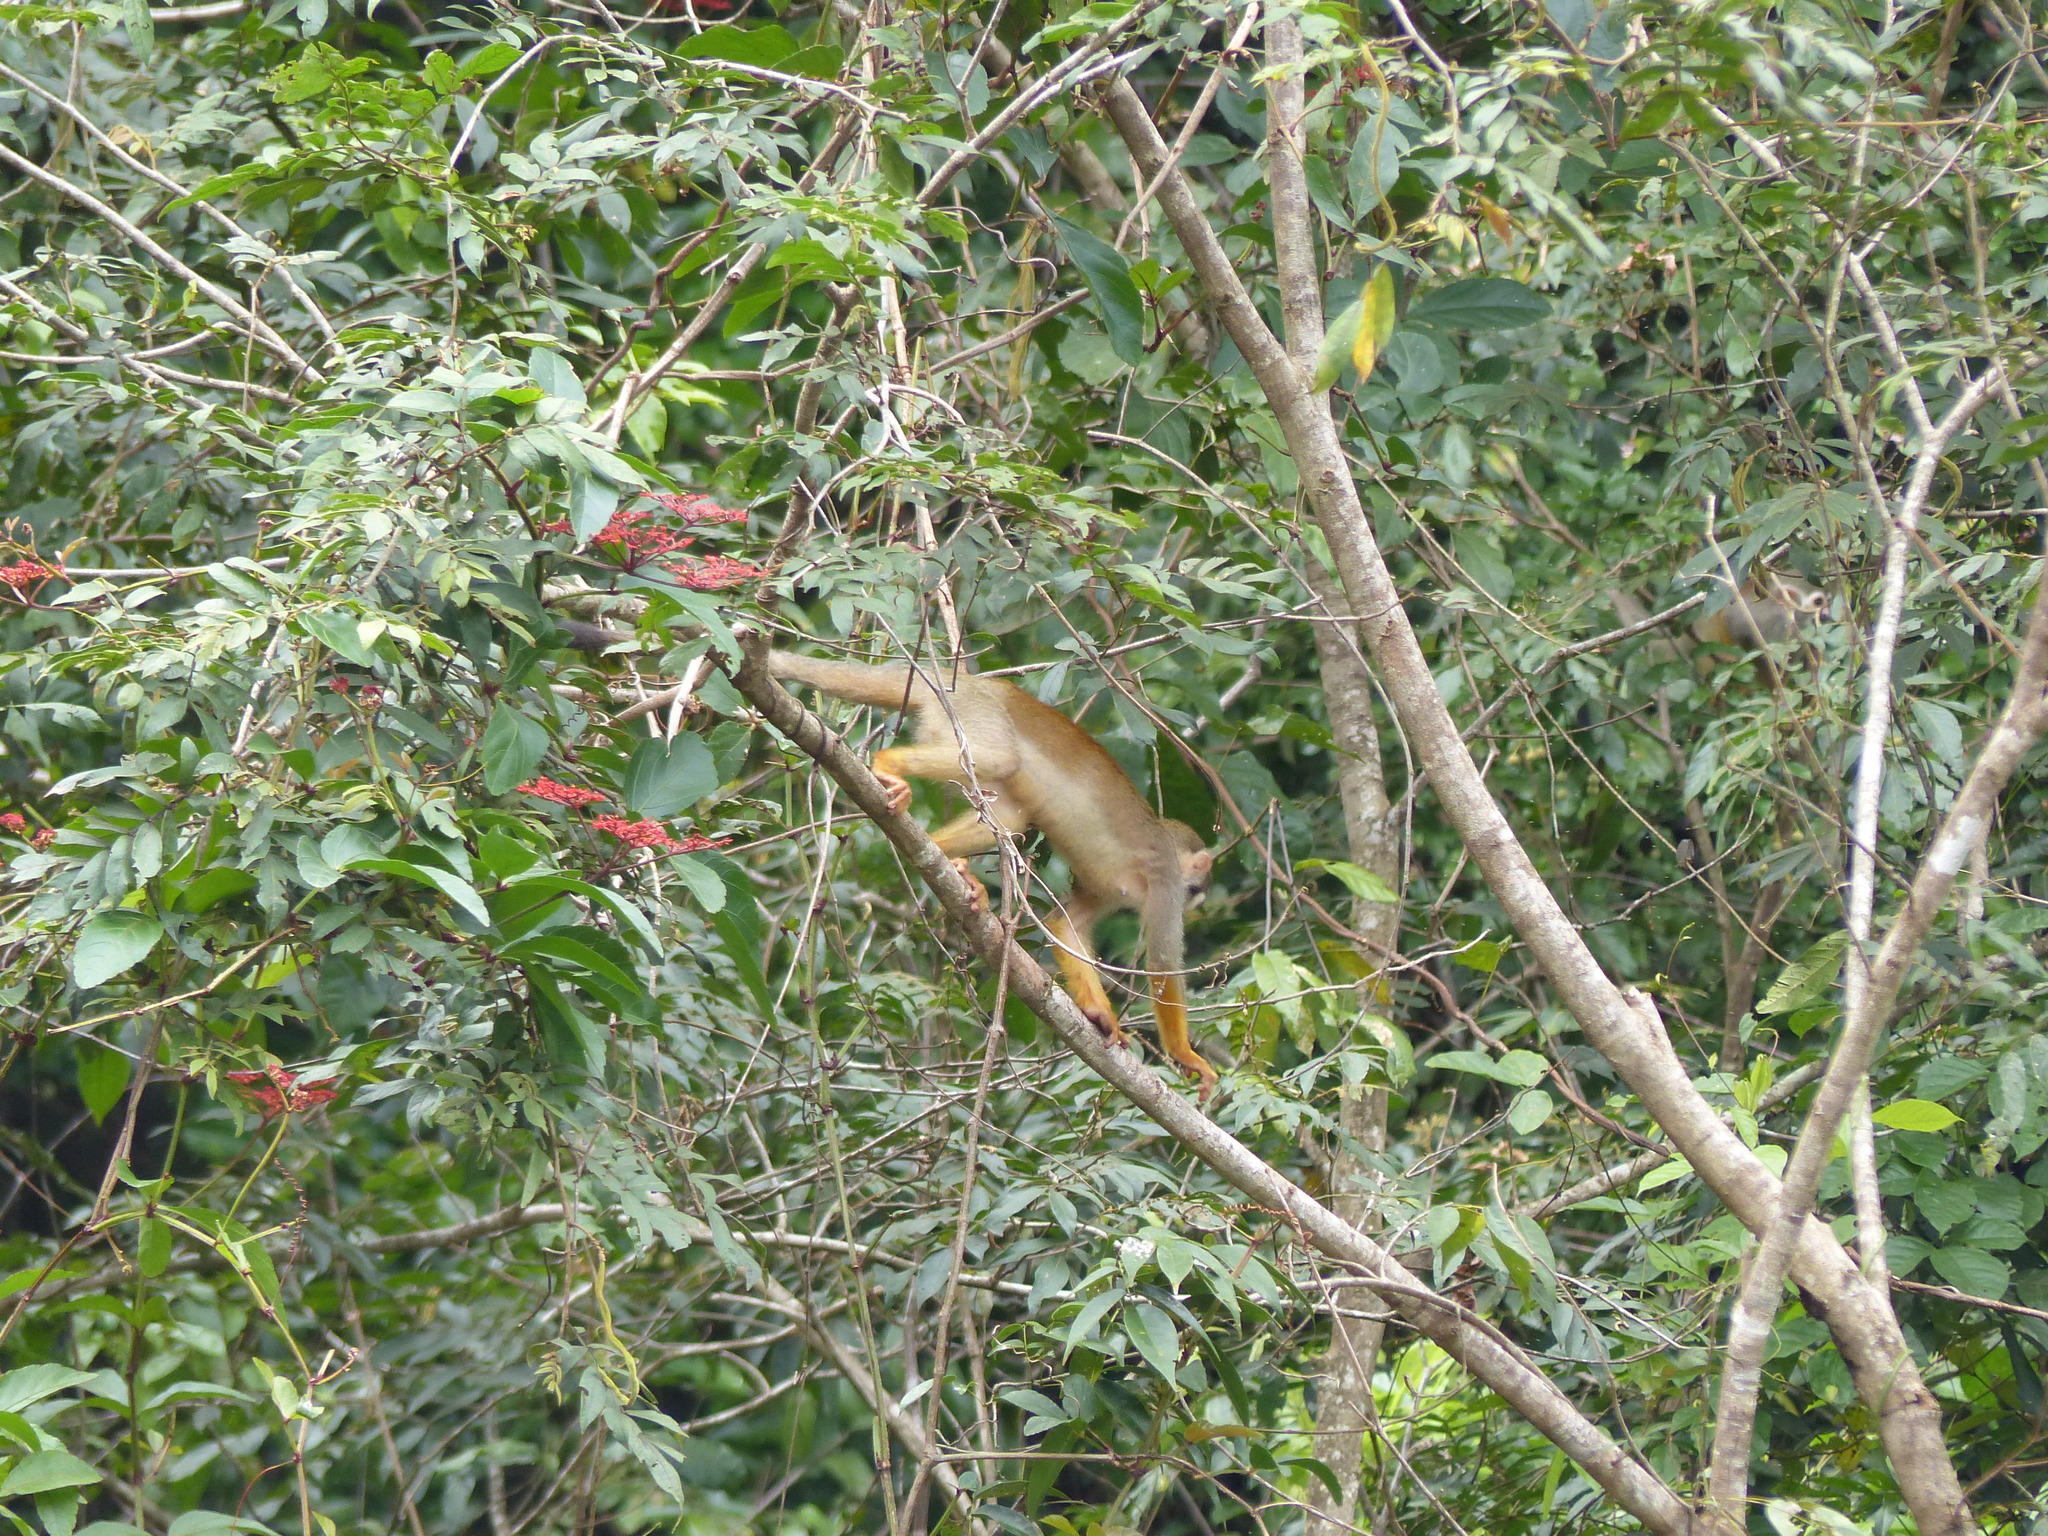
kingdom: Animalia
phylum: Chordata
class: Mammalia
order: Primates
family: Cebidae
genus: Saimiri
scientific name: Saimiri sciureus
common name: Common squirrel monkey
